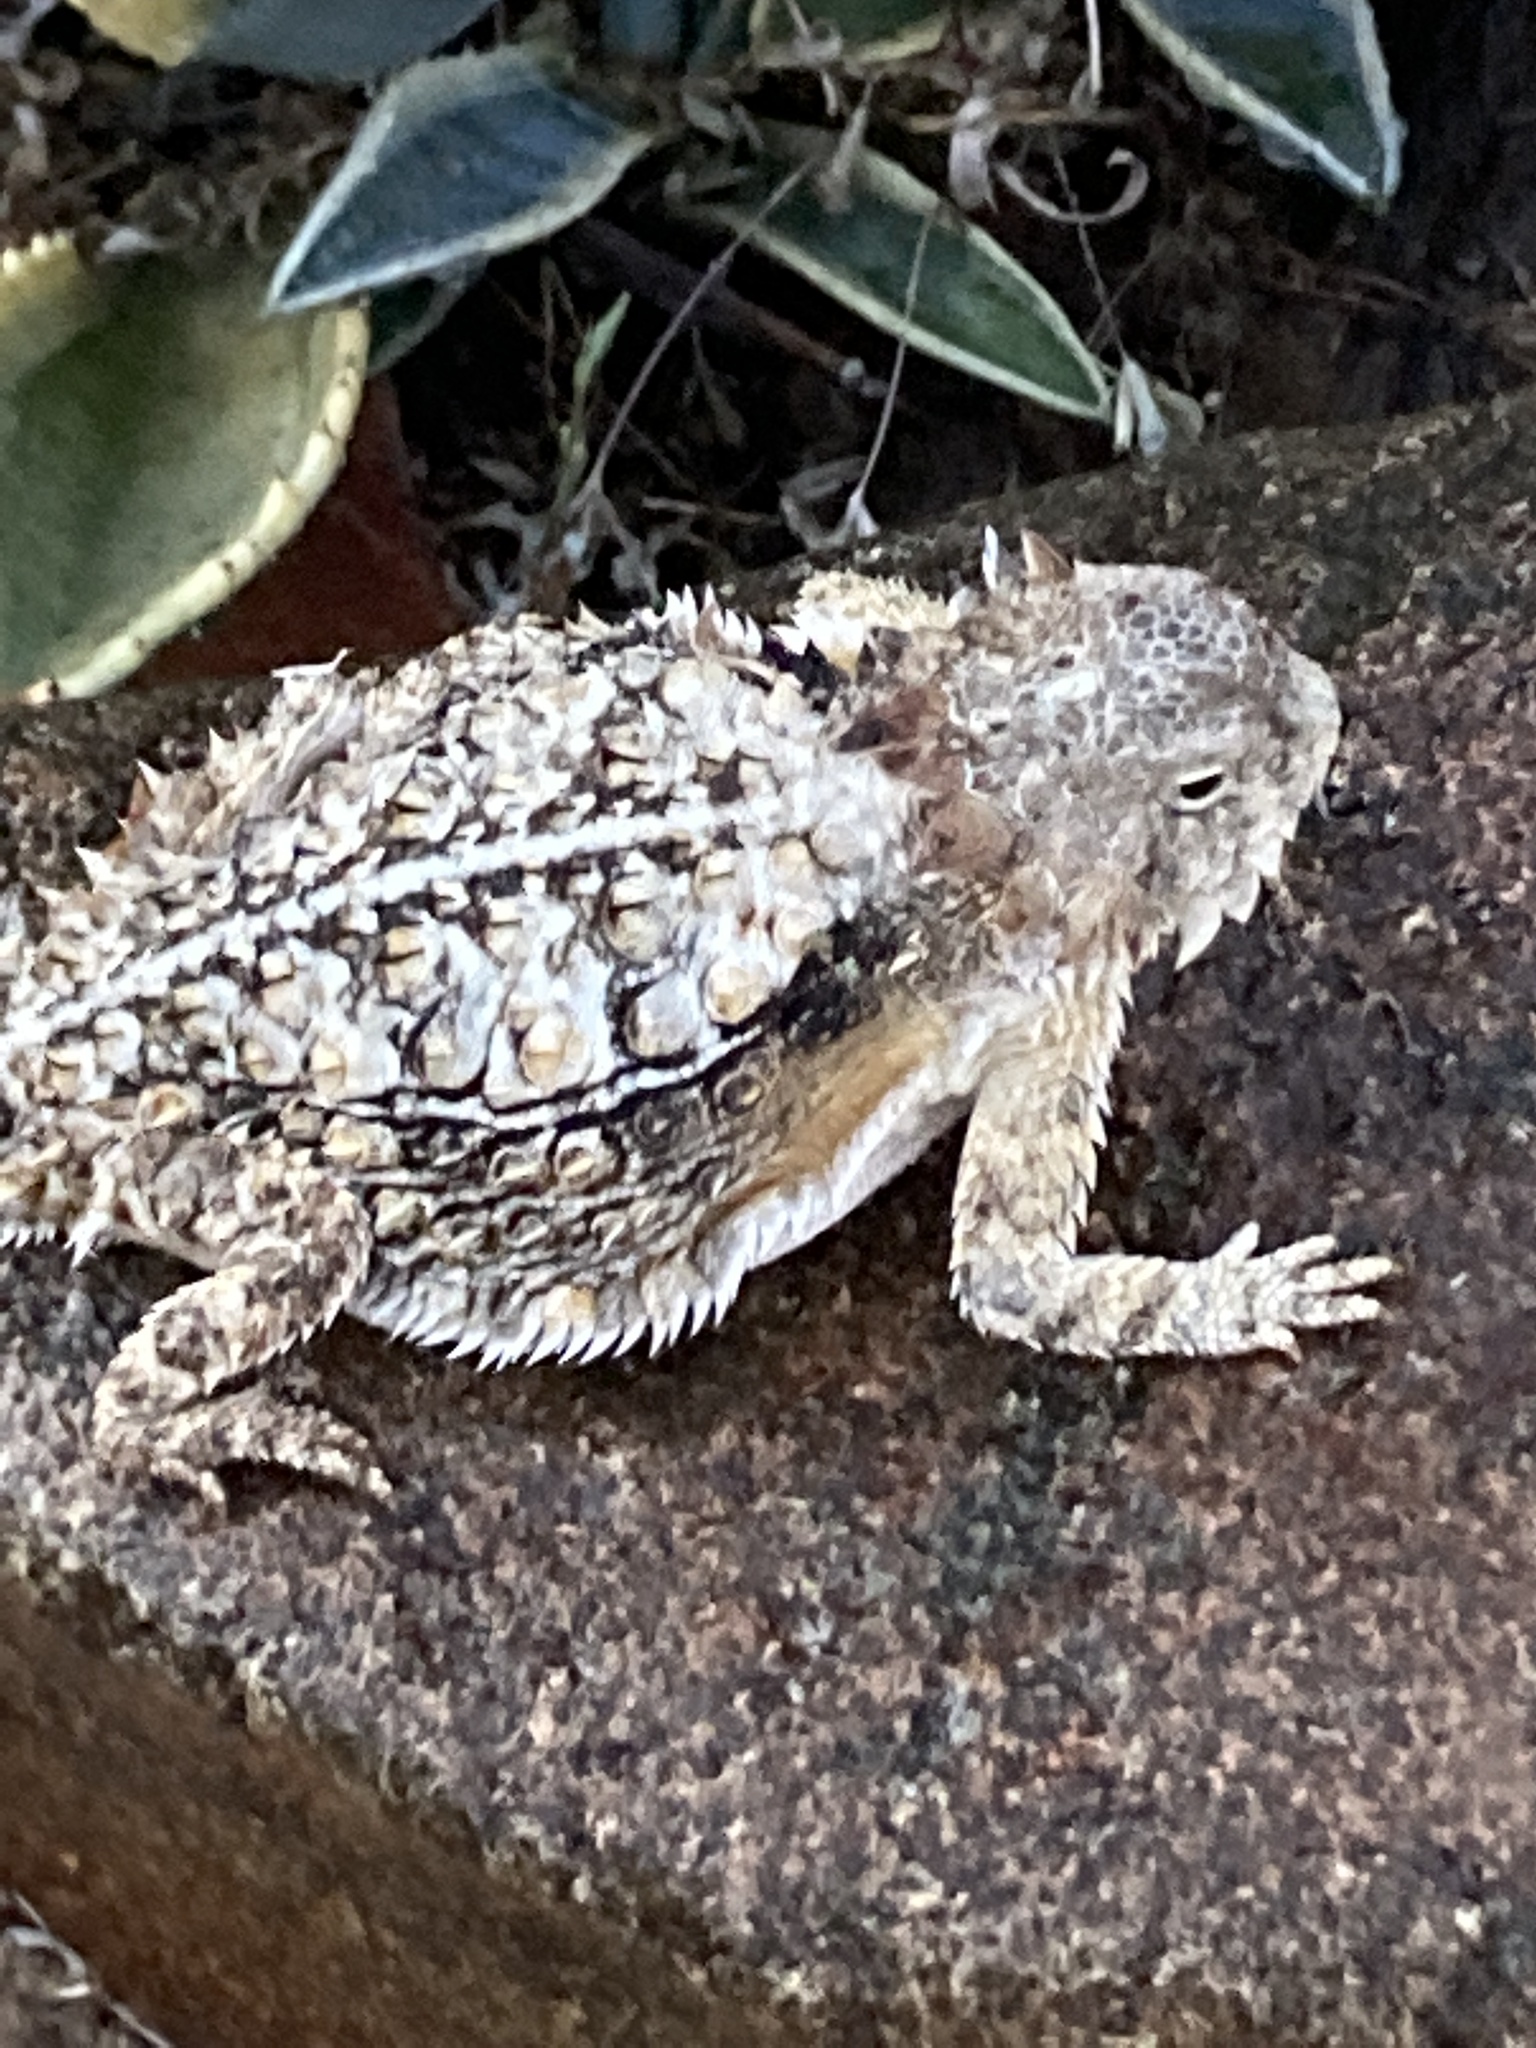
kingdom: Animalia
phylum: Chordata
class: Squamata
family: Phrynosomatidae
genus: Phrynosoma
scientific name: Phrynosoma solare
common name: Regal horned lizard
